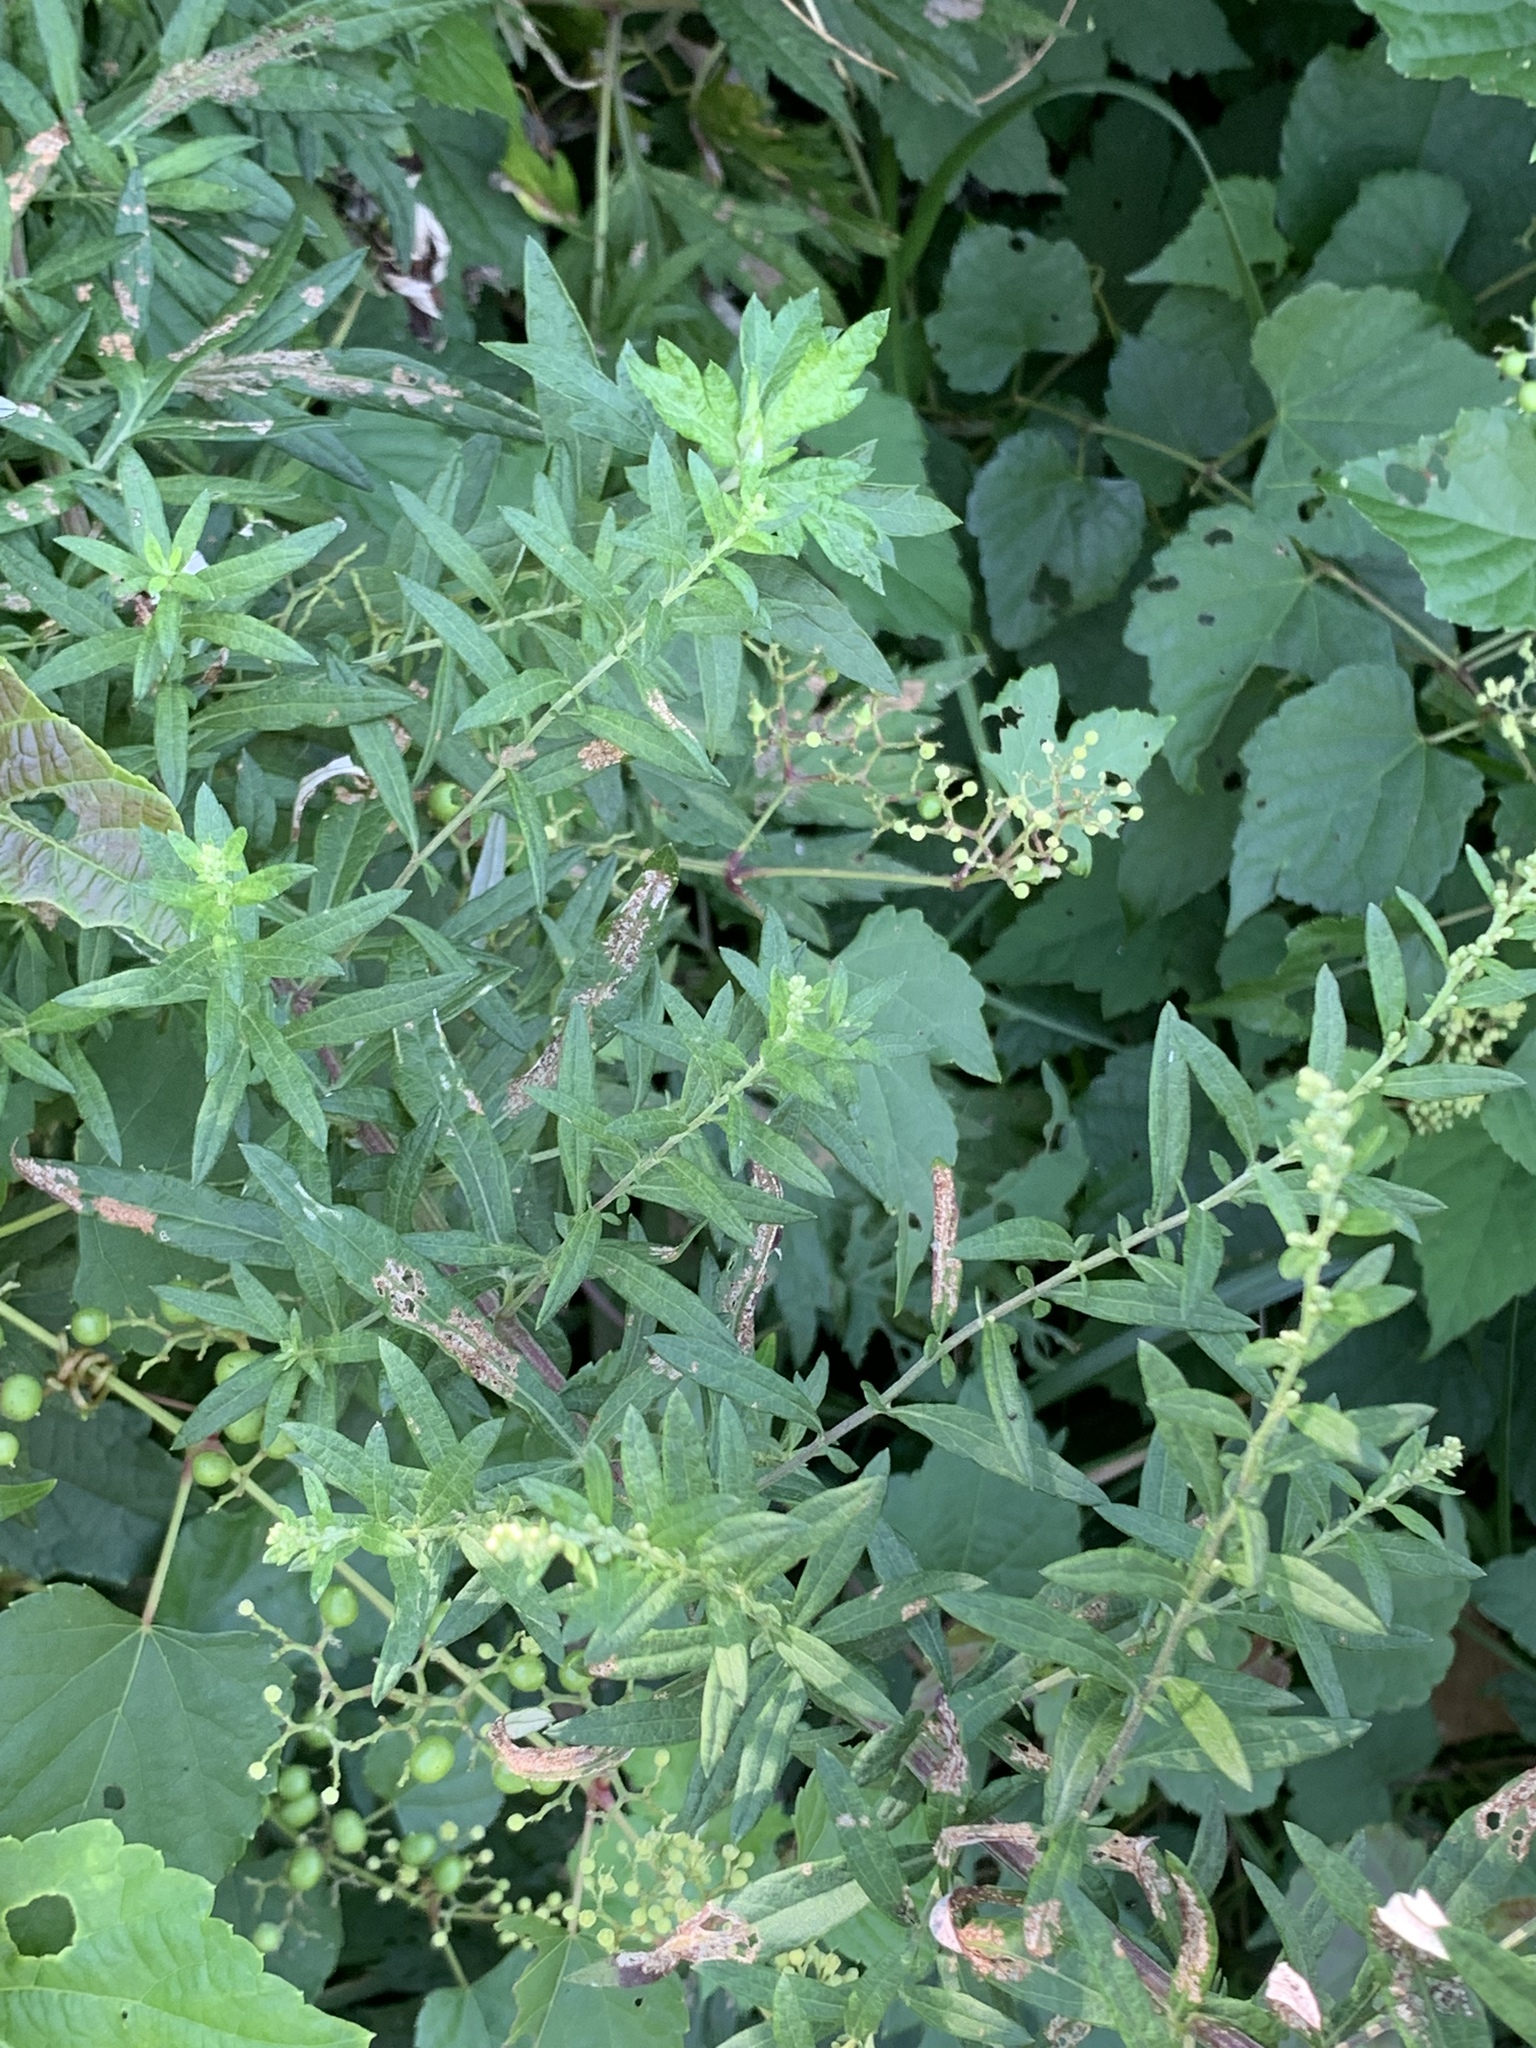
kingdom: Plantae
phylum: Tracheophyta
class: Magnoliopsida
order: Asterales
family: Asteraceae
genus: Artemisia
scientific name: Artemisia vulgaris
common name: Mugwort
